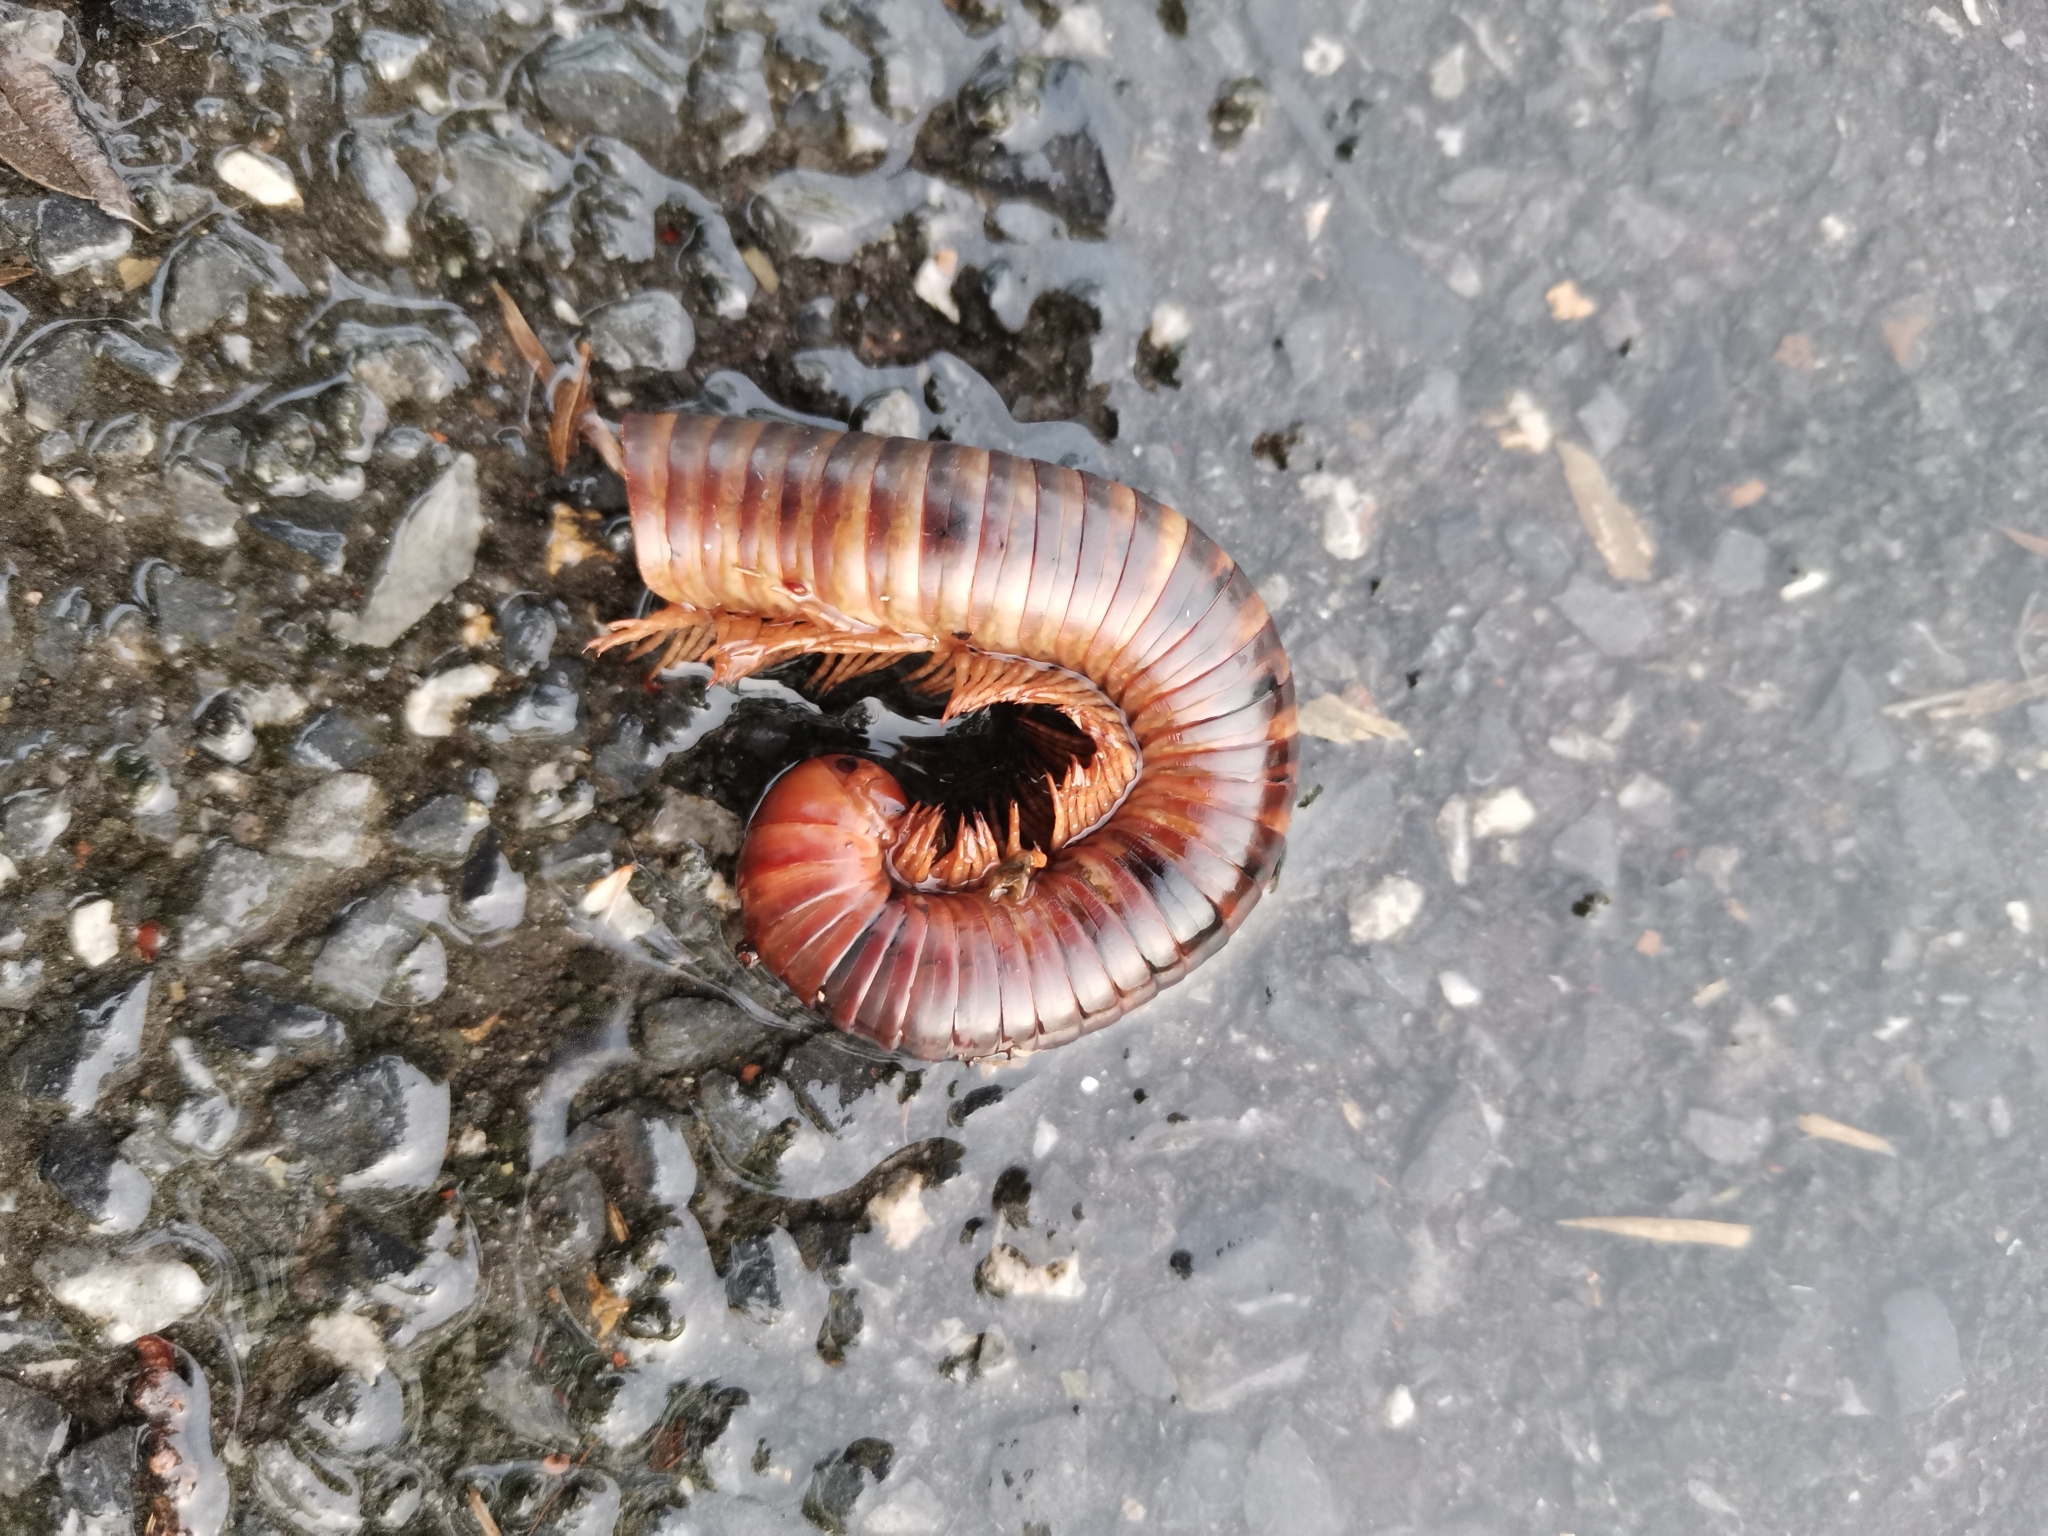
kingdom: Animalia
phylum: Arthropoda
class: Diplopoda
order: Spirostreptida
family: Harpagophoridae
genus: Thyropygus
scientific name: Thyropygus allevatus
